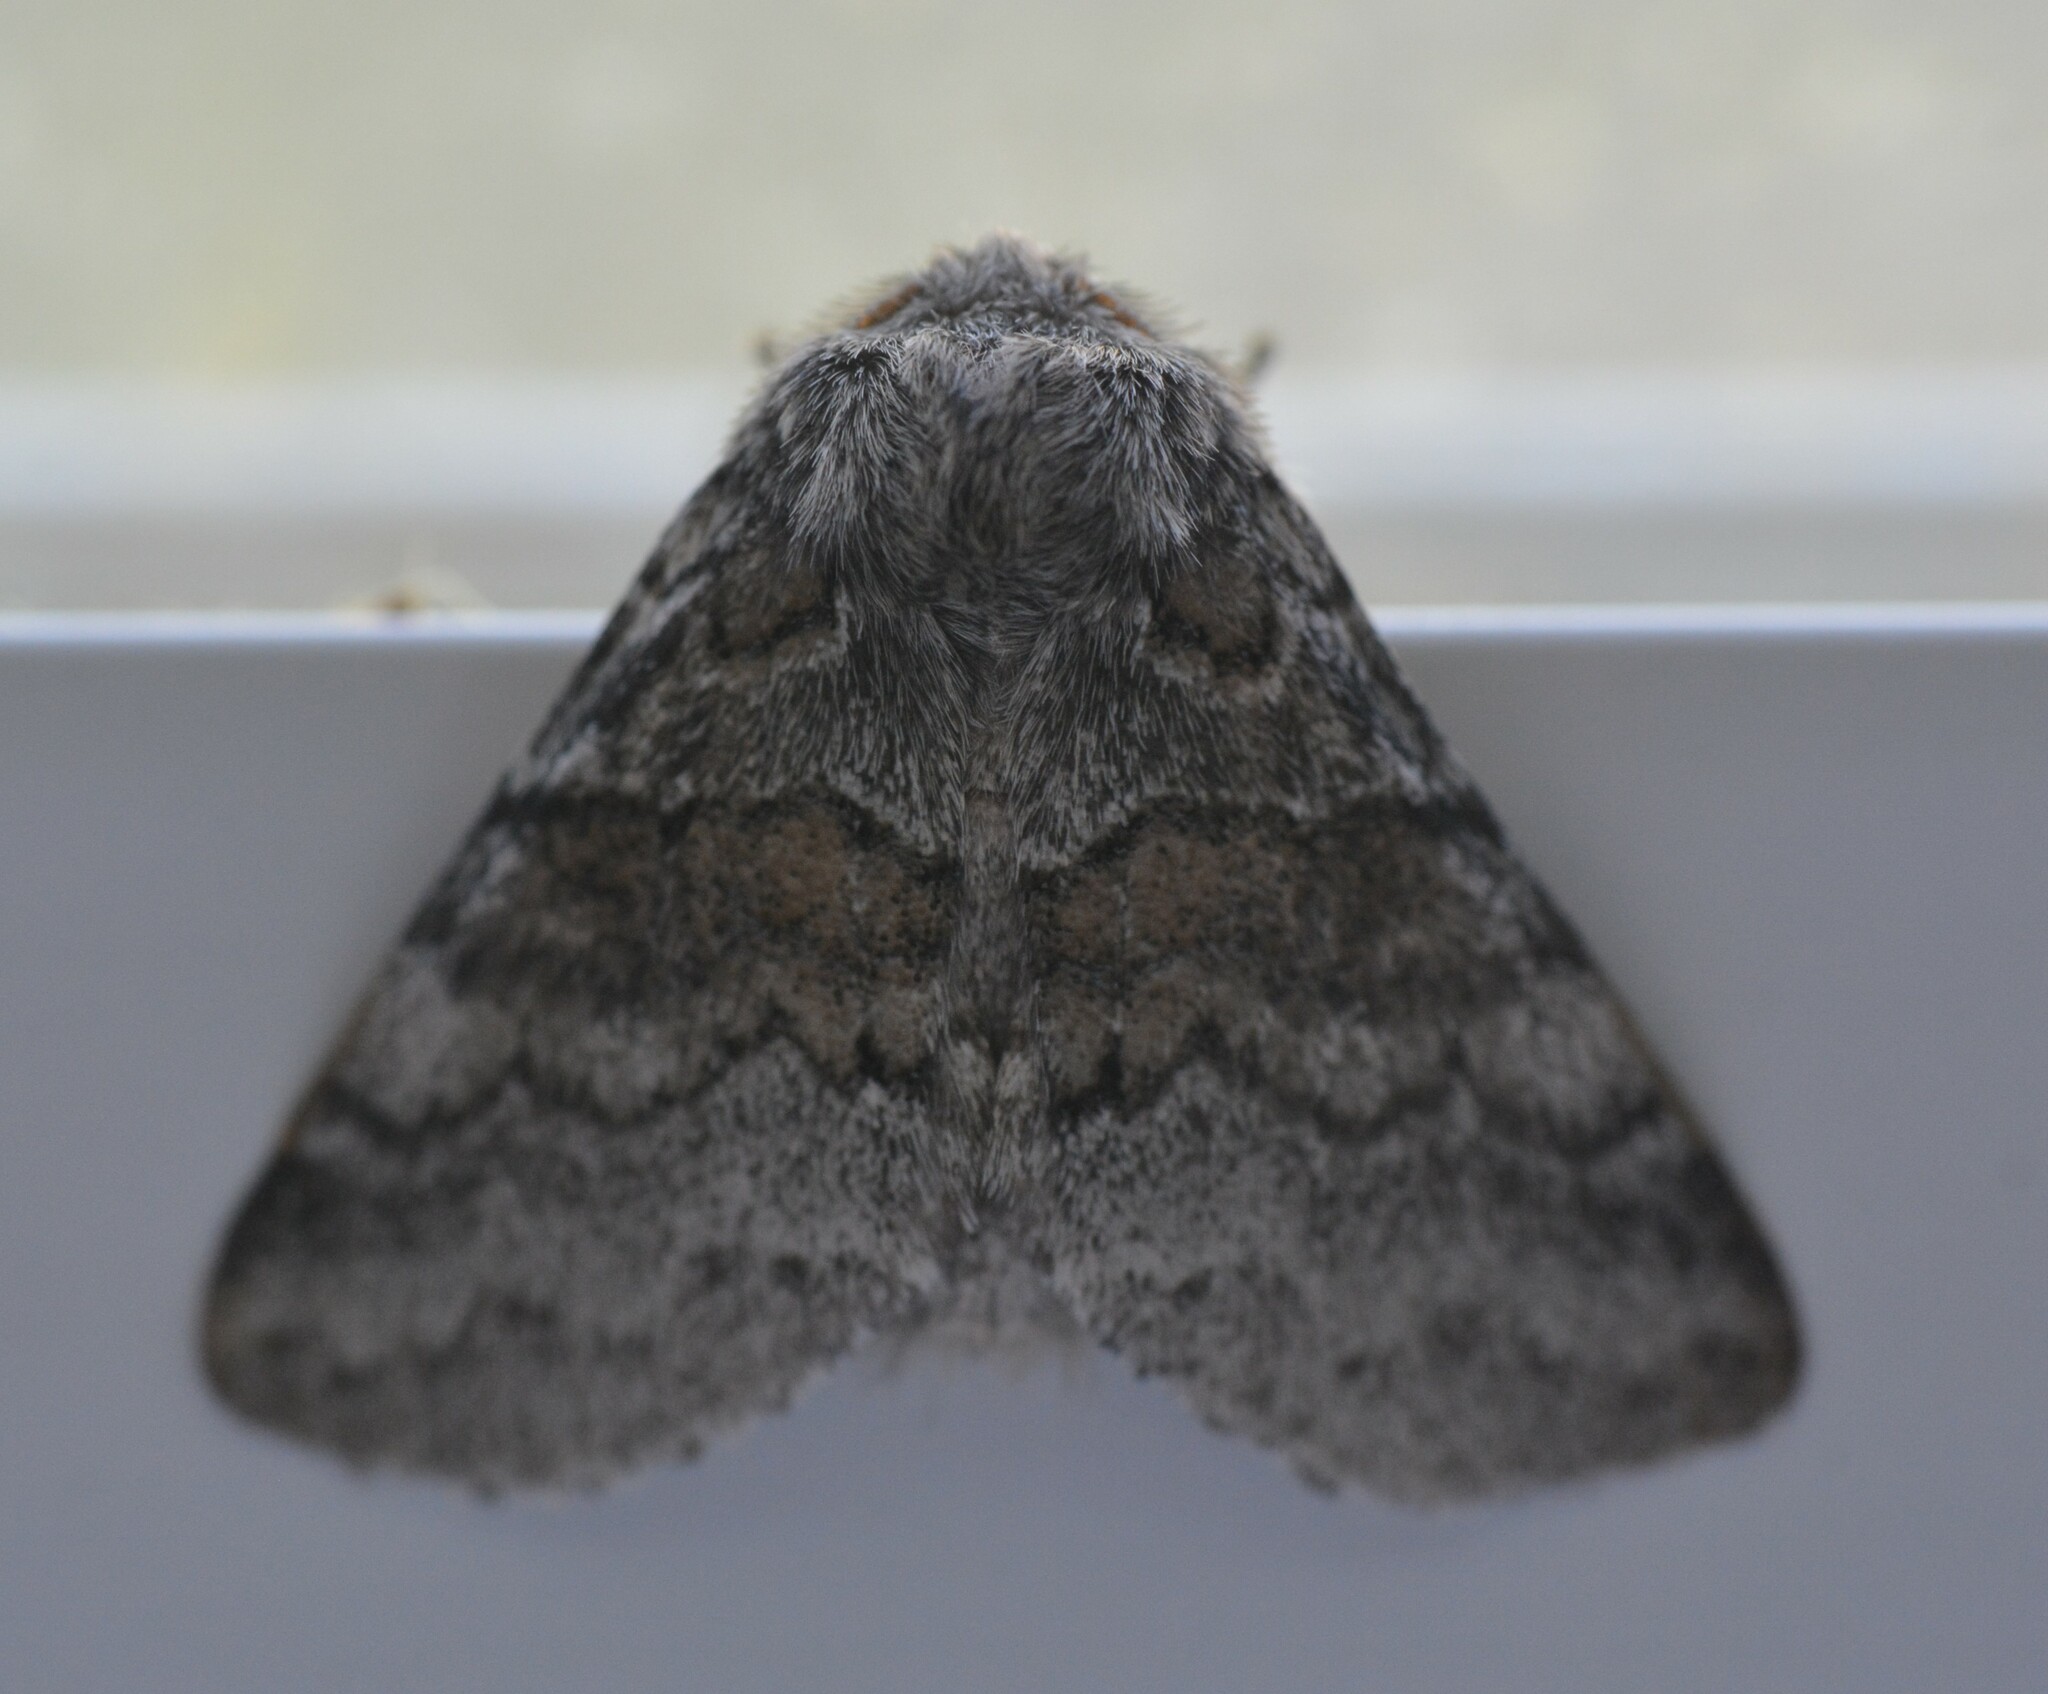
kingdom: Animalia
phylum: Arthropoda
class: Insecta
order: Lepidoptera
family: Notodontidae
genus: Gluphisia
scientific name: Gluphisia septentrionis
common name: Common gluphisia
